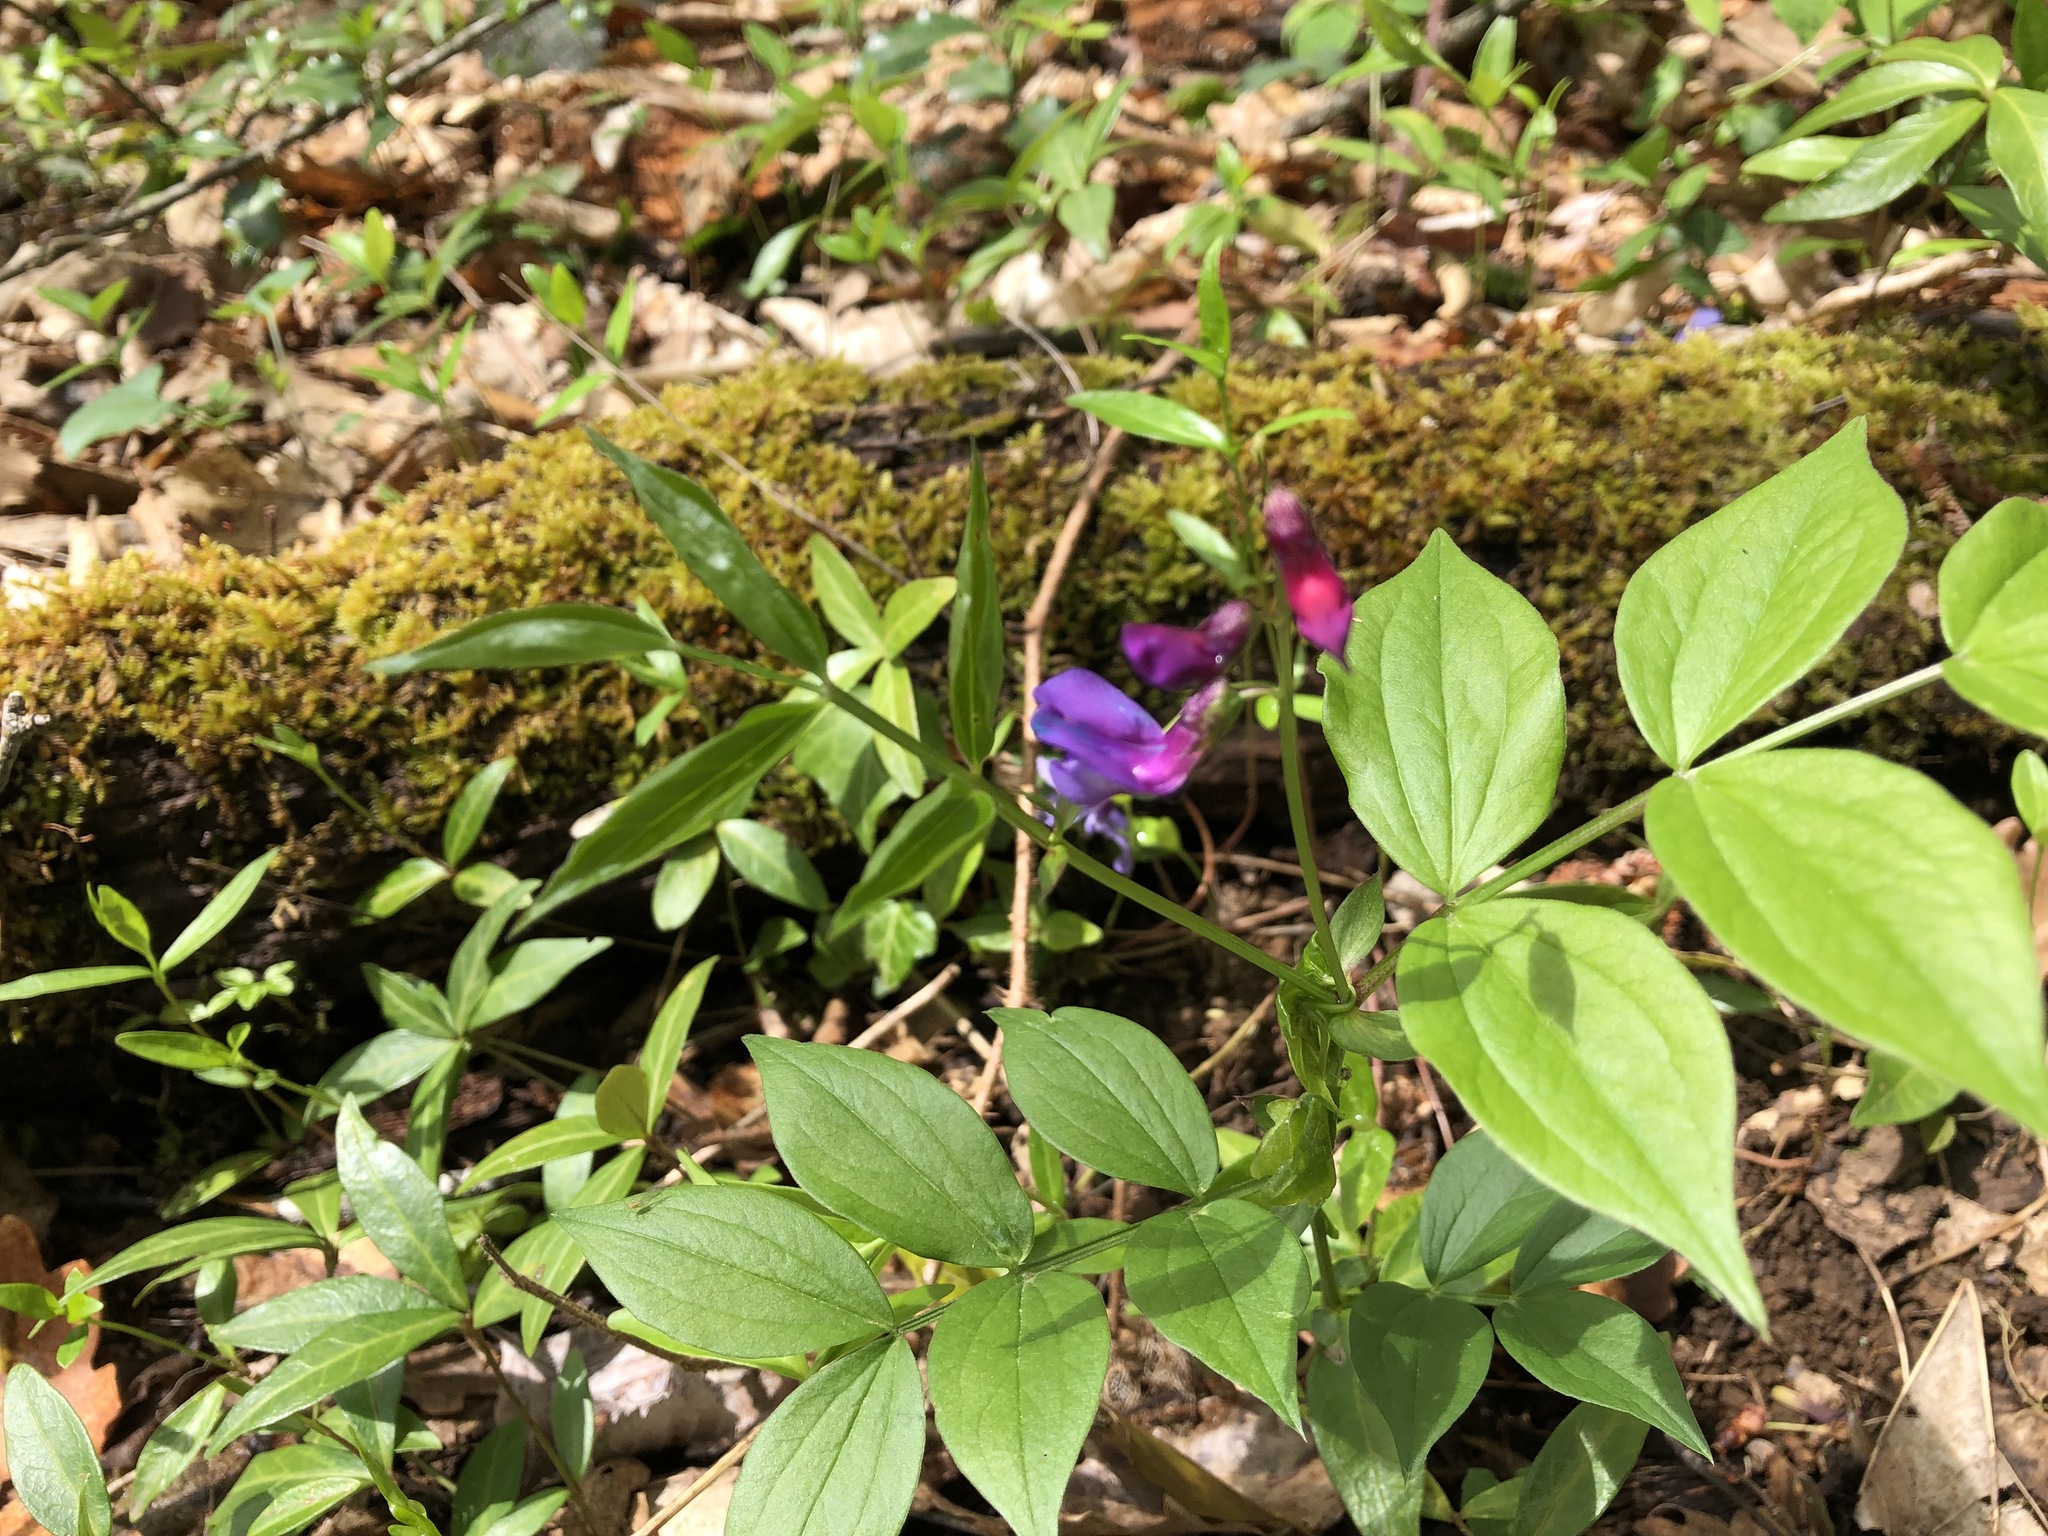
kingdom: Plantae
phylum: Tracheophyta
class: Magnoliopsida
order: Fabales
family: Fabaceae
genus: Lathyrus
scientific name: Lathyrus vernus
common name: Spring pea
